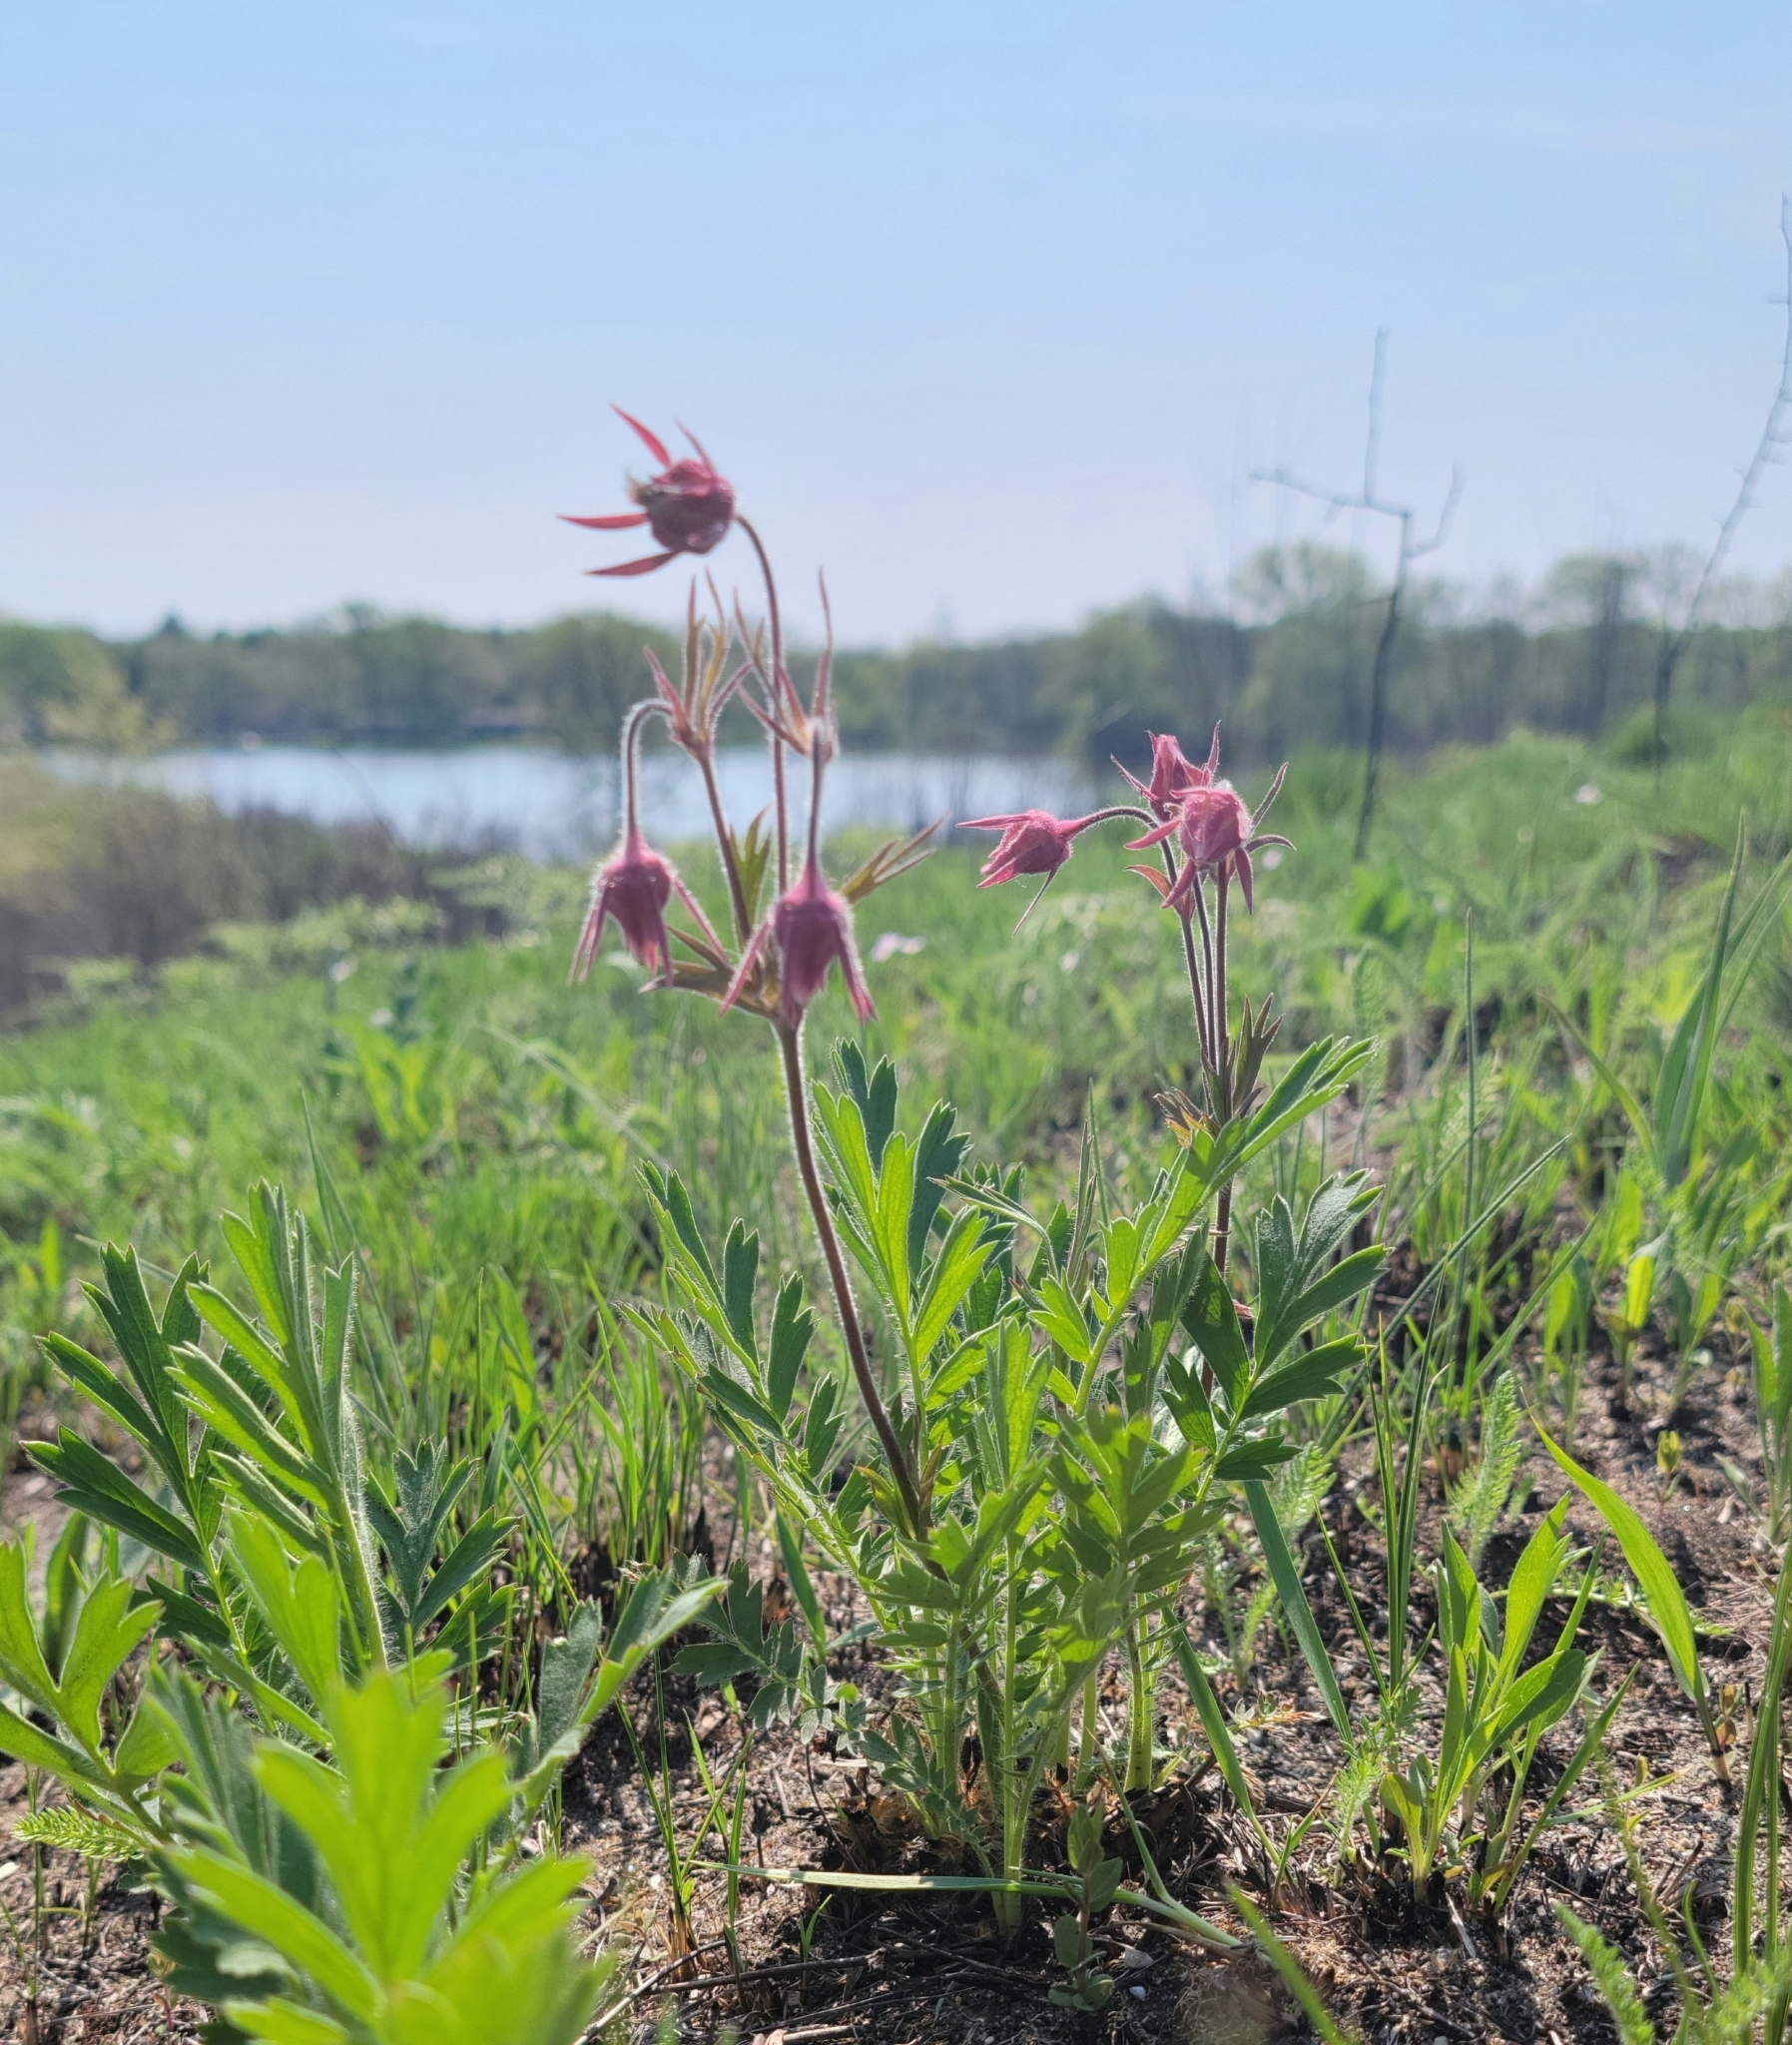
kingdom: Plantae
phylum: Tracheophyta
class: Magnoliopsida
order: Rosales
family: Rosaceae
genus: Geum
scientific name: Geum triflorum
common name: Old man's whiskers
